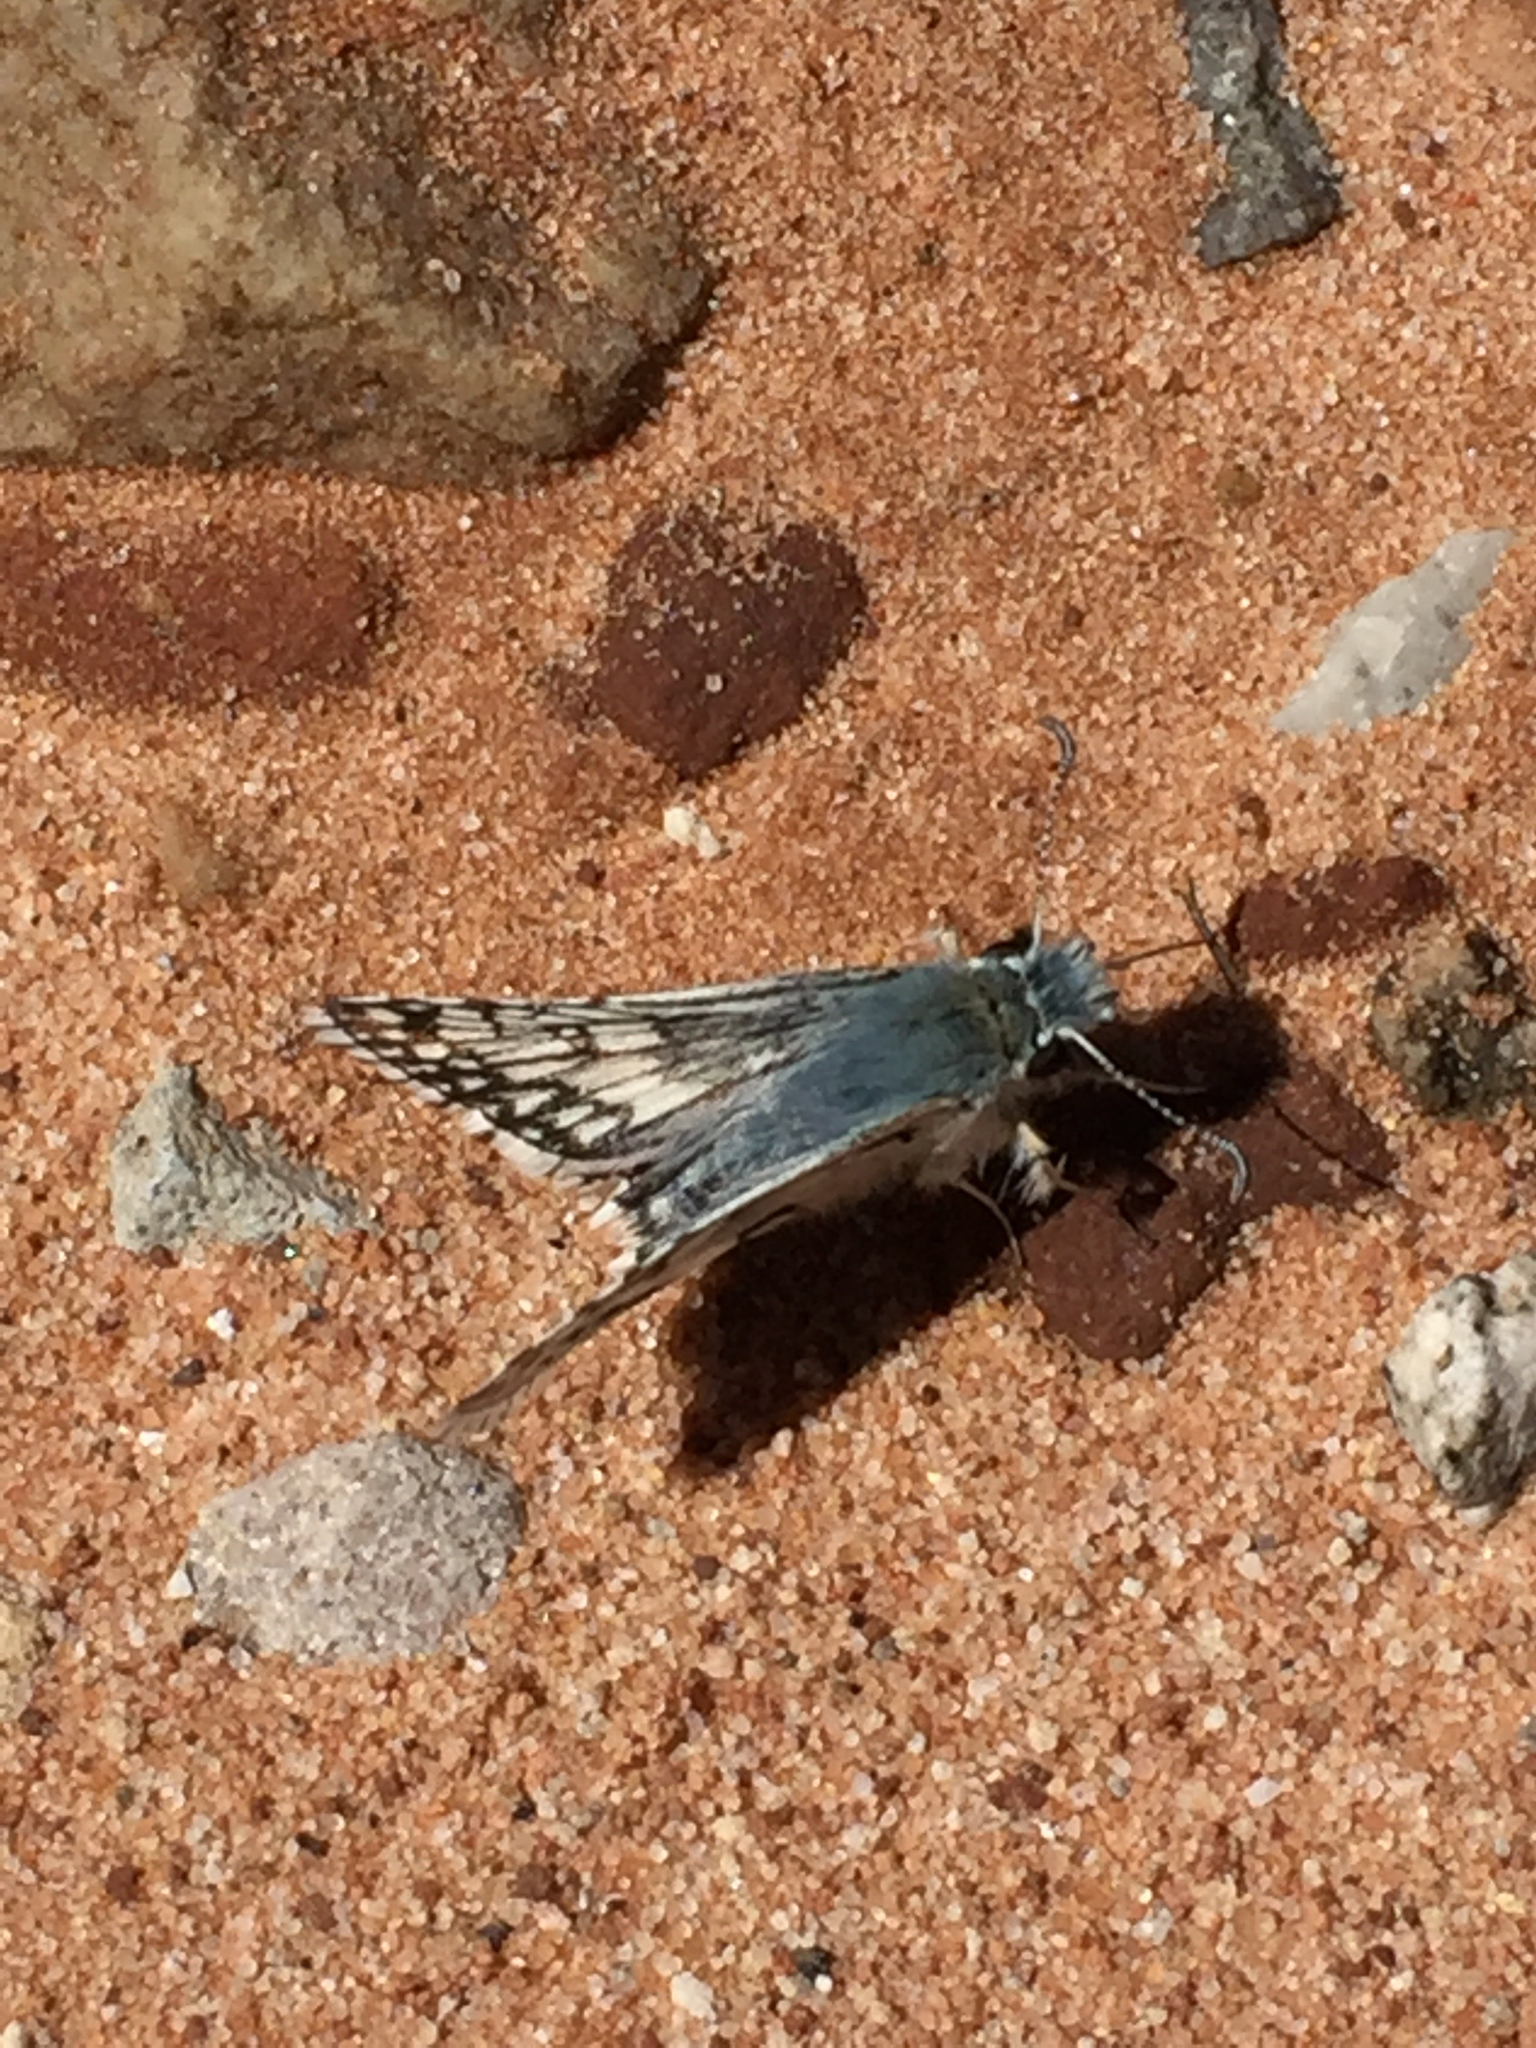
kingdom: Animalia
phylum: Arthropoda
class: Insecta
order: Lepidoptera
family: Hesperiidae
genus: Burnsius
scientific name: Burnsius communis
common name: Common checkered-skipper
